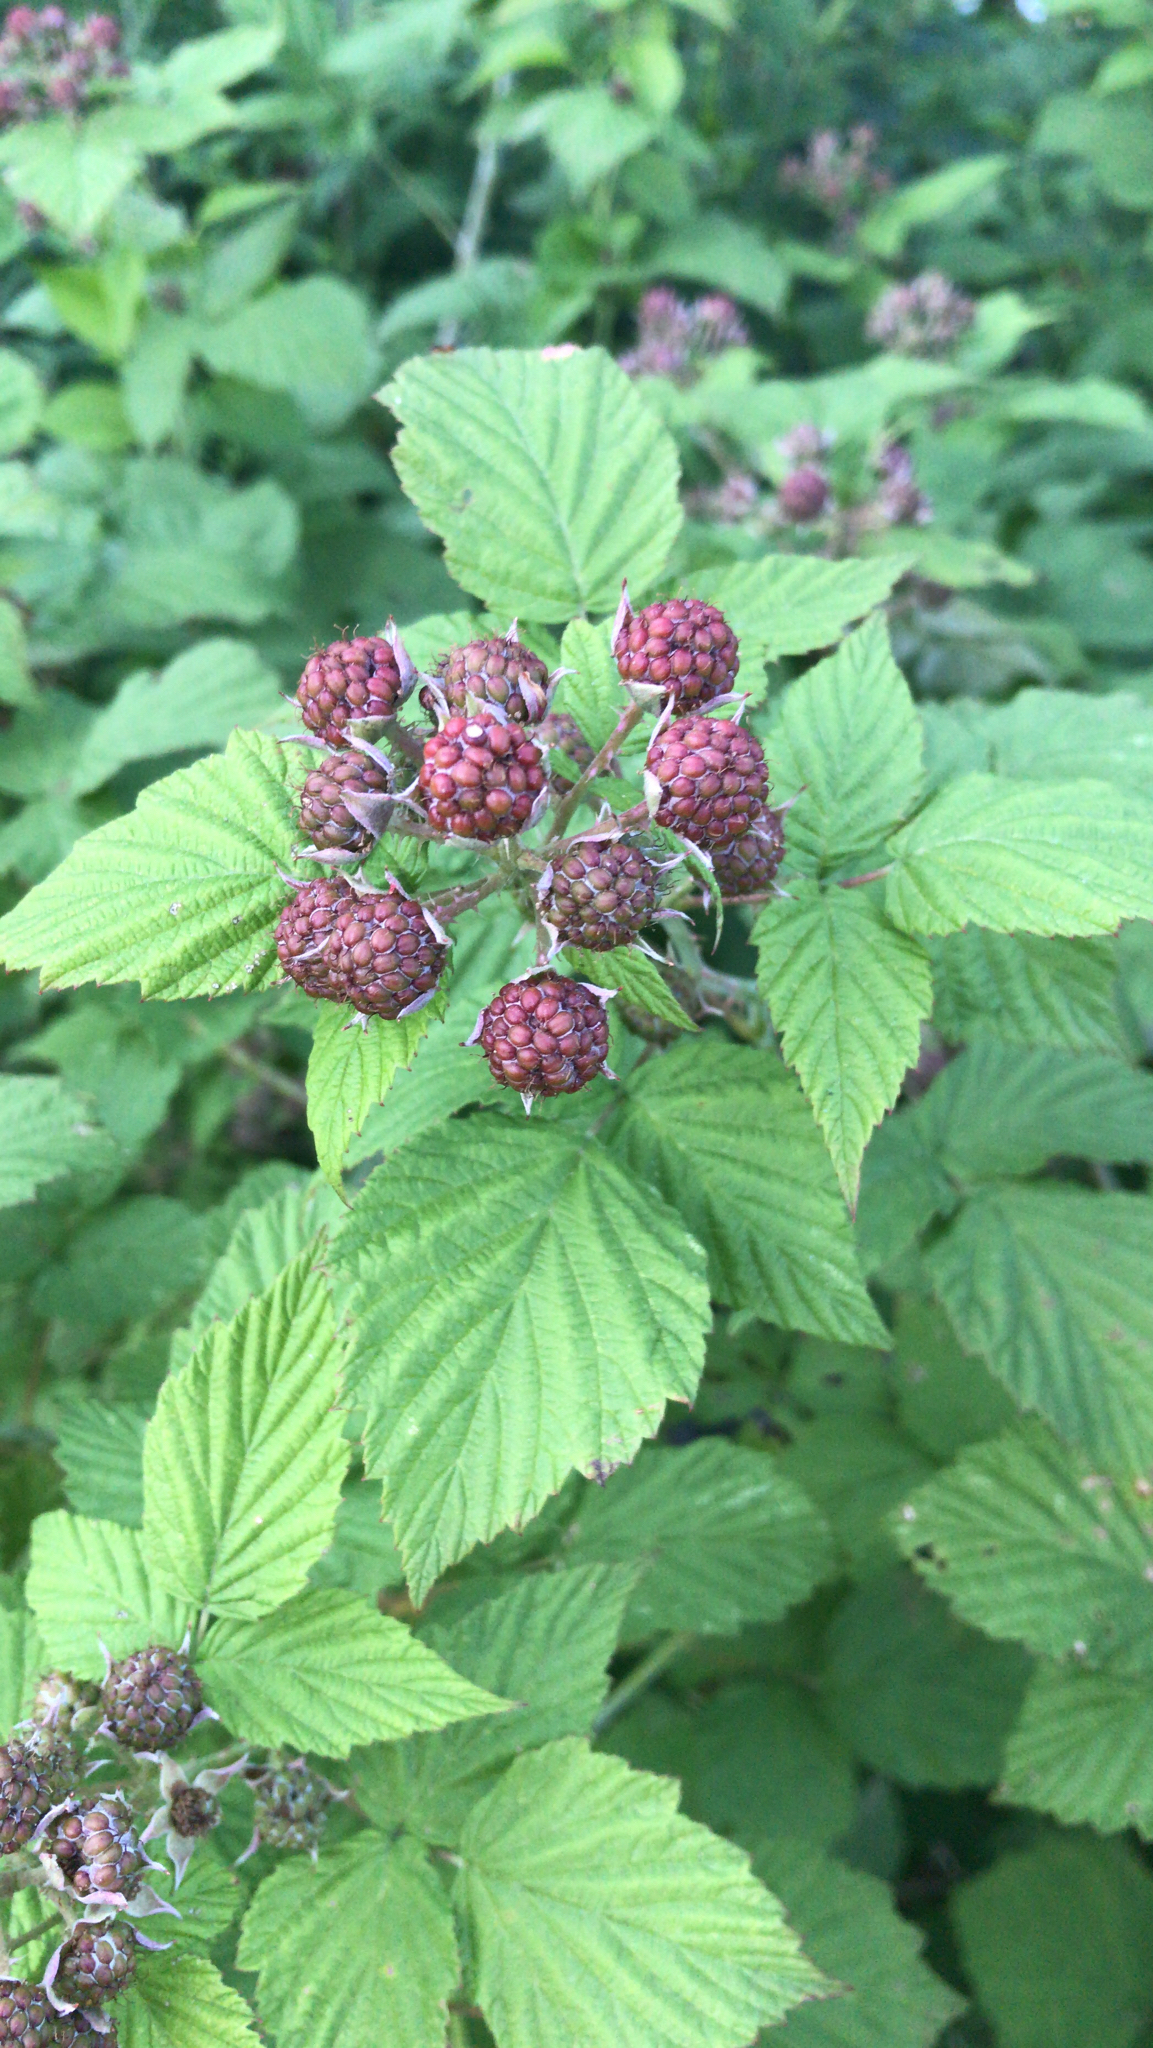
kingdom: Plantae
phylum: Tracheophyta
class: Magnoliopsida
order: Rosales
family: Rosaceae
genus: Rubus
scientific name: Rubus occidentalis
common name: Black raspberry
